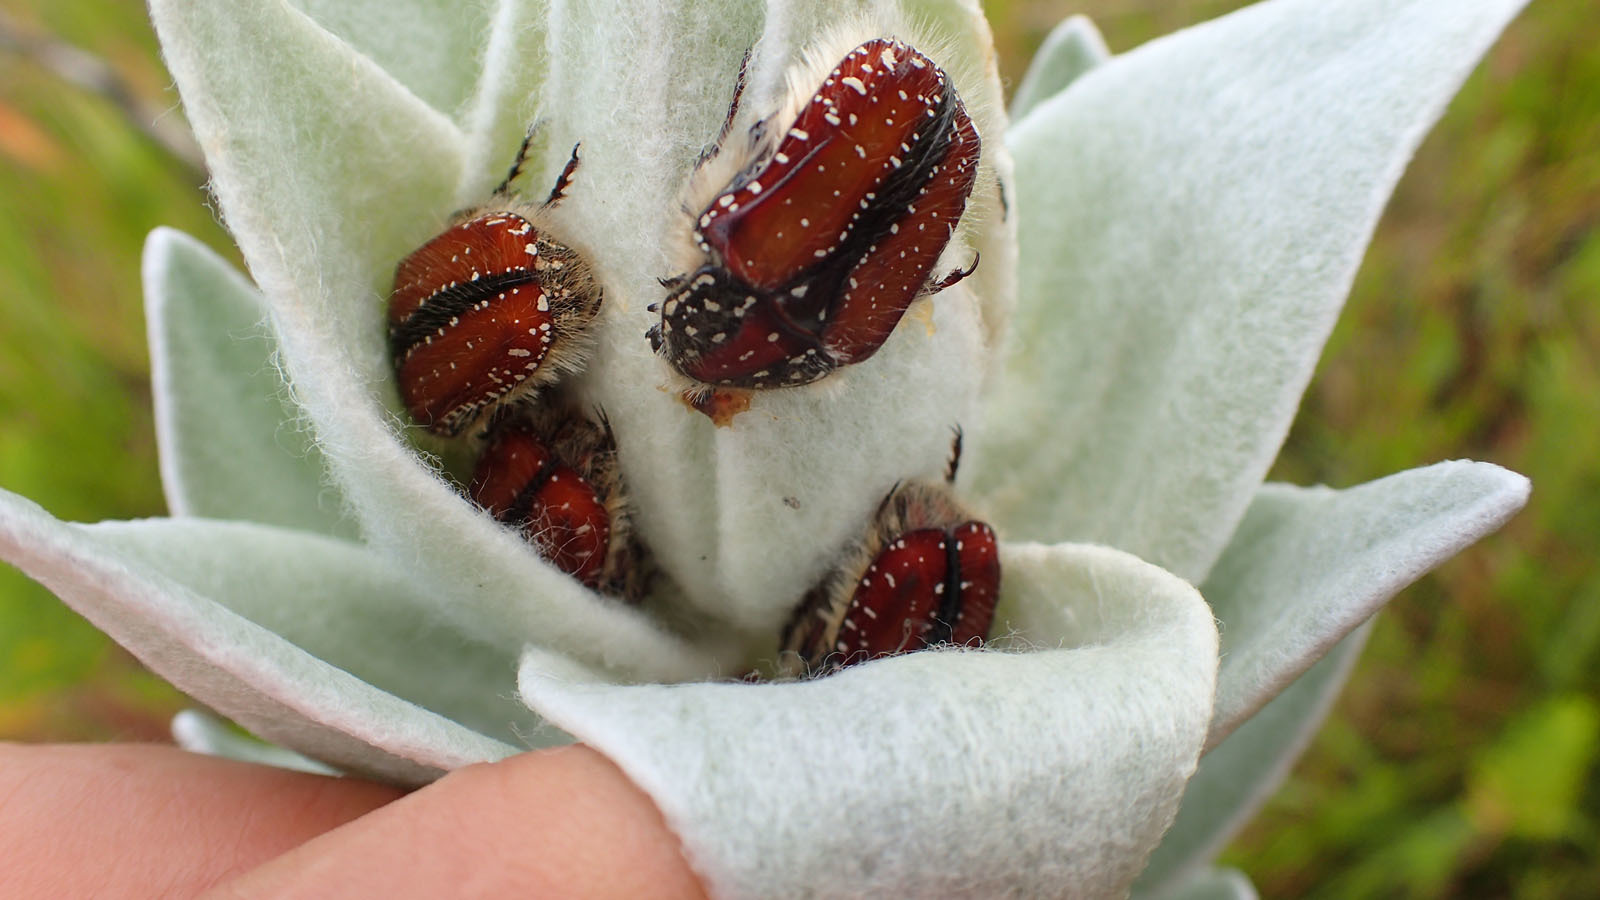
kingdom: Animalia
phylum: Arthropoda
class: Insecta
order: Coleoptera
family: Scarabaeidae
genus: Trichostetha
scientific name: Trichostetha capensis
